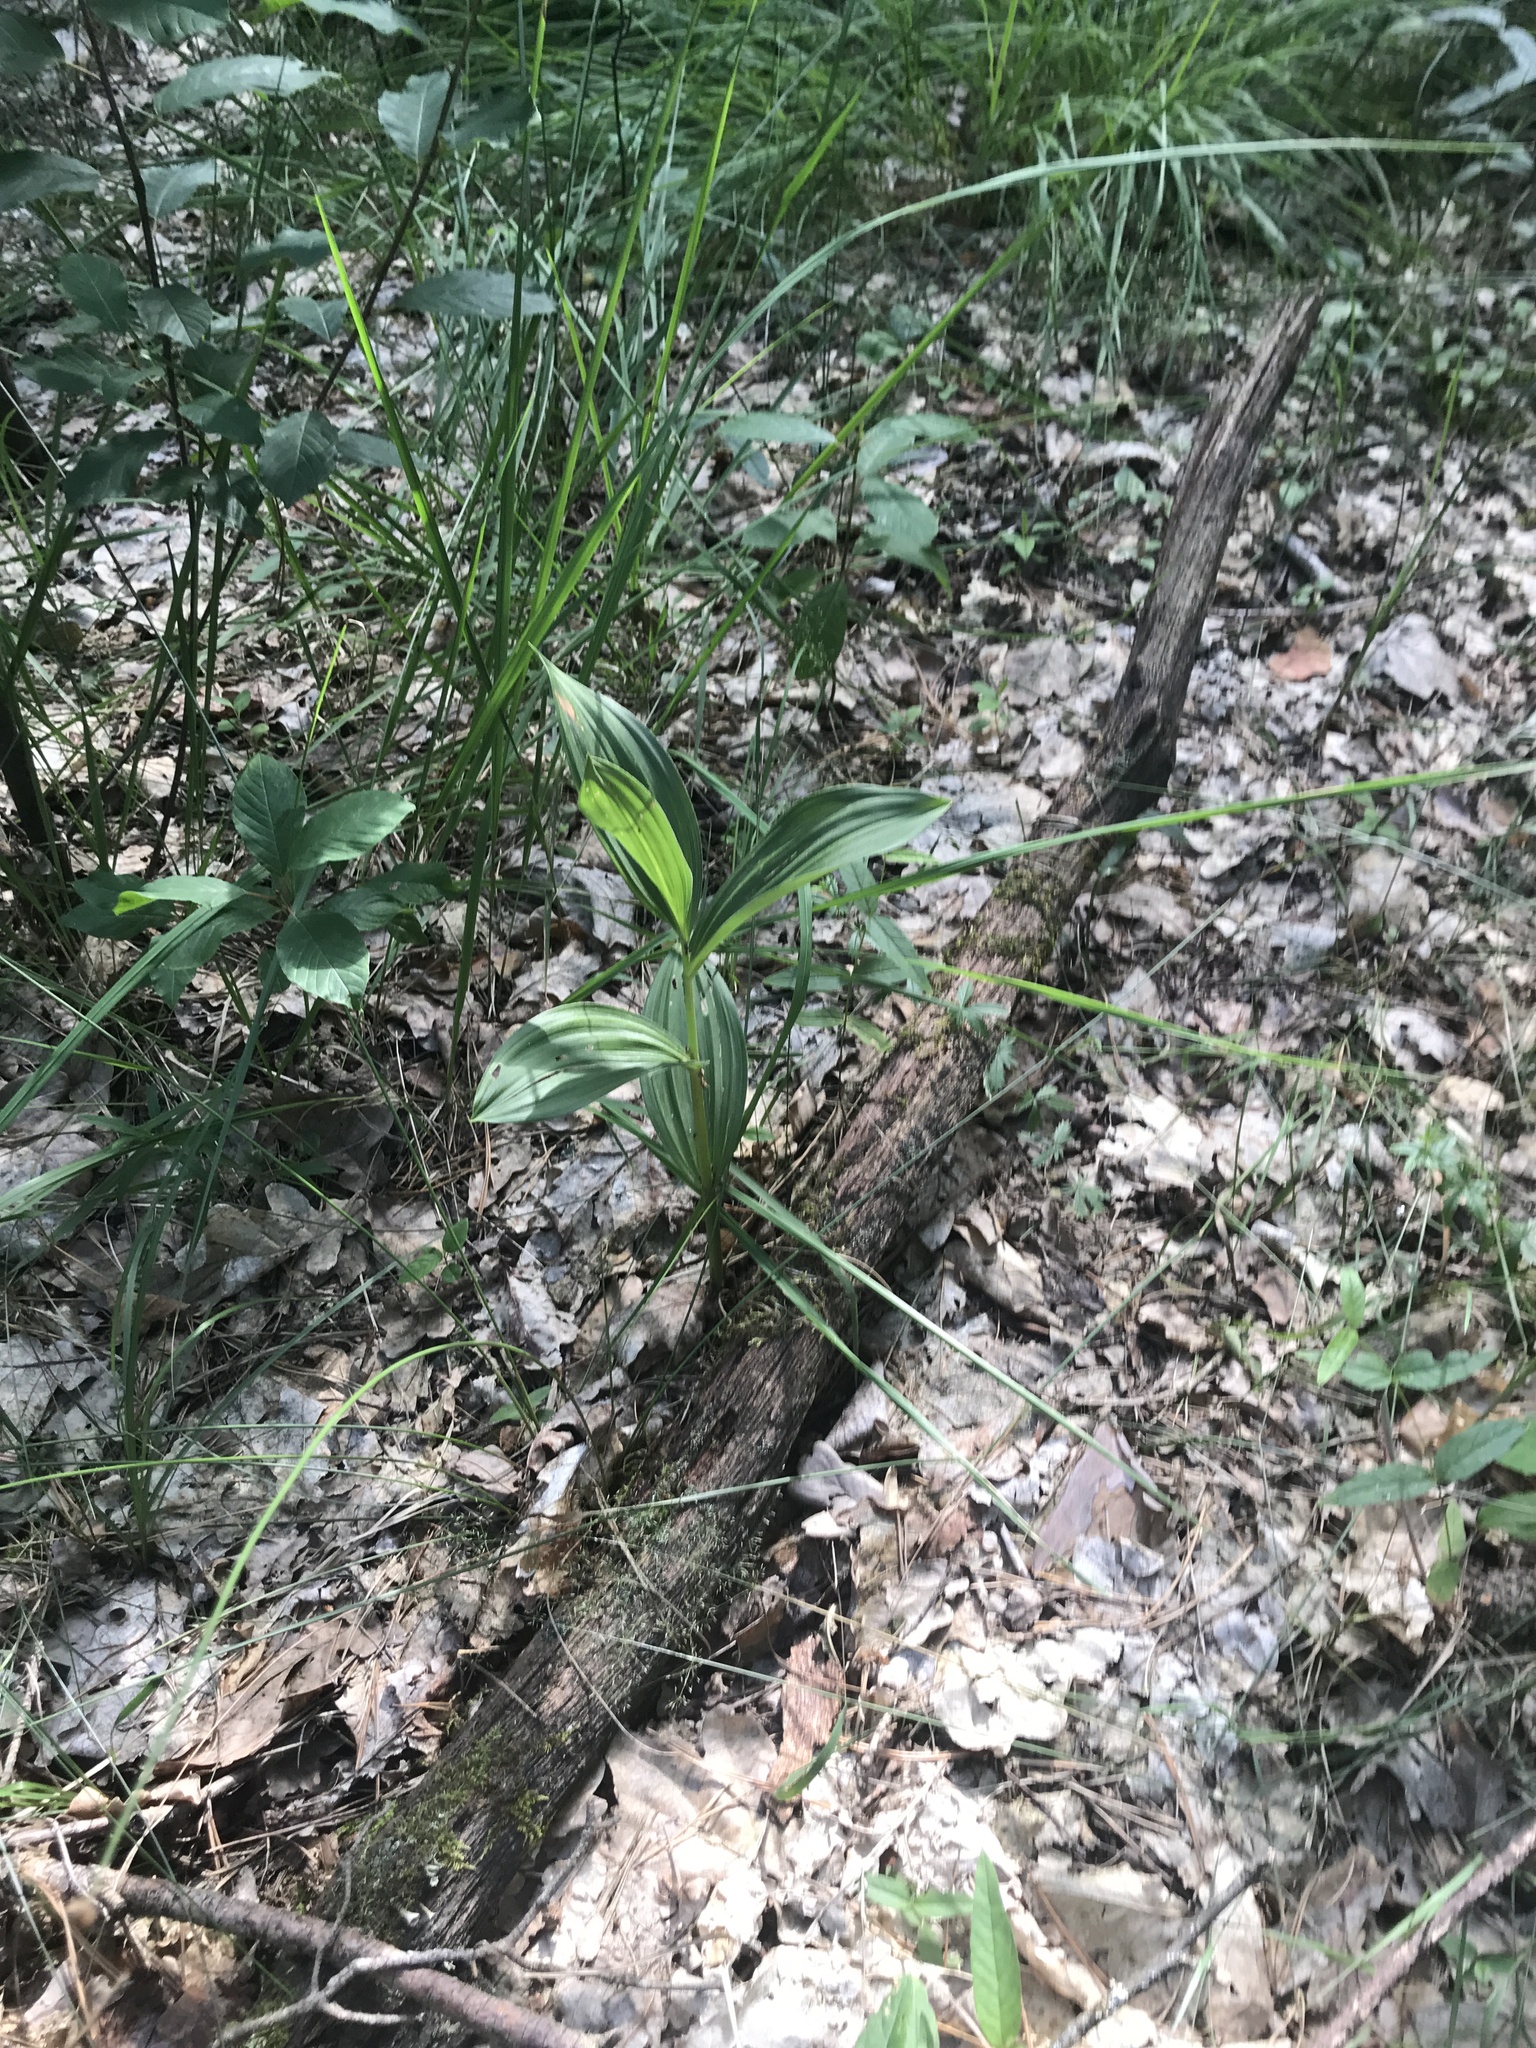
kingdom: Plantae
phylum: Tracheophyta
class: Liliopsida
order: Liliales
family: Melanthiaceae
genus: Veratrum
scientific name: Veratrum lobelianum
